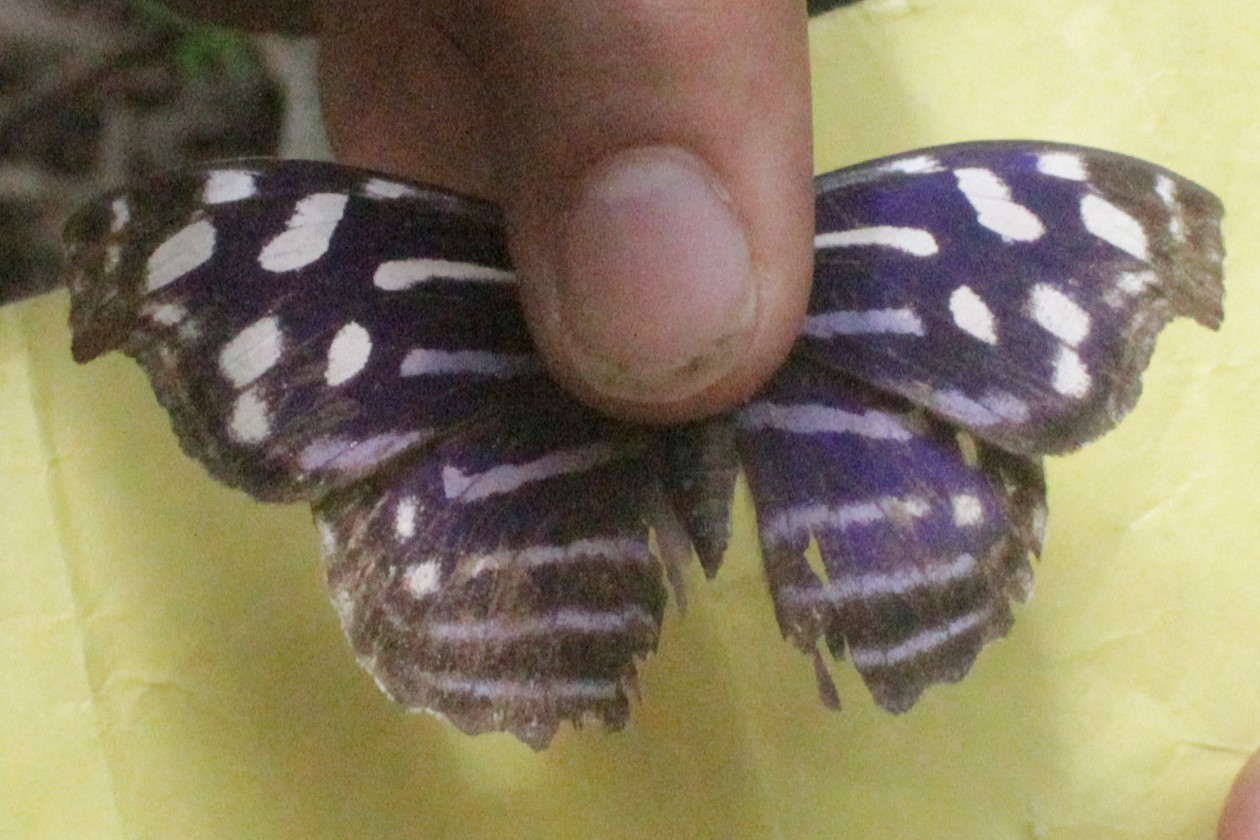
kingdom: Animalia
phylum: Arthropoda
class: Insecta
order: Lepidoptera
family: Nymphalidae
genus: Myscelia
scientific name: Myscelia cyaniris
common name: Whitened bluewing
